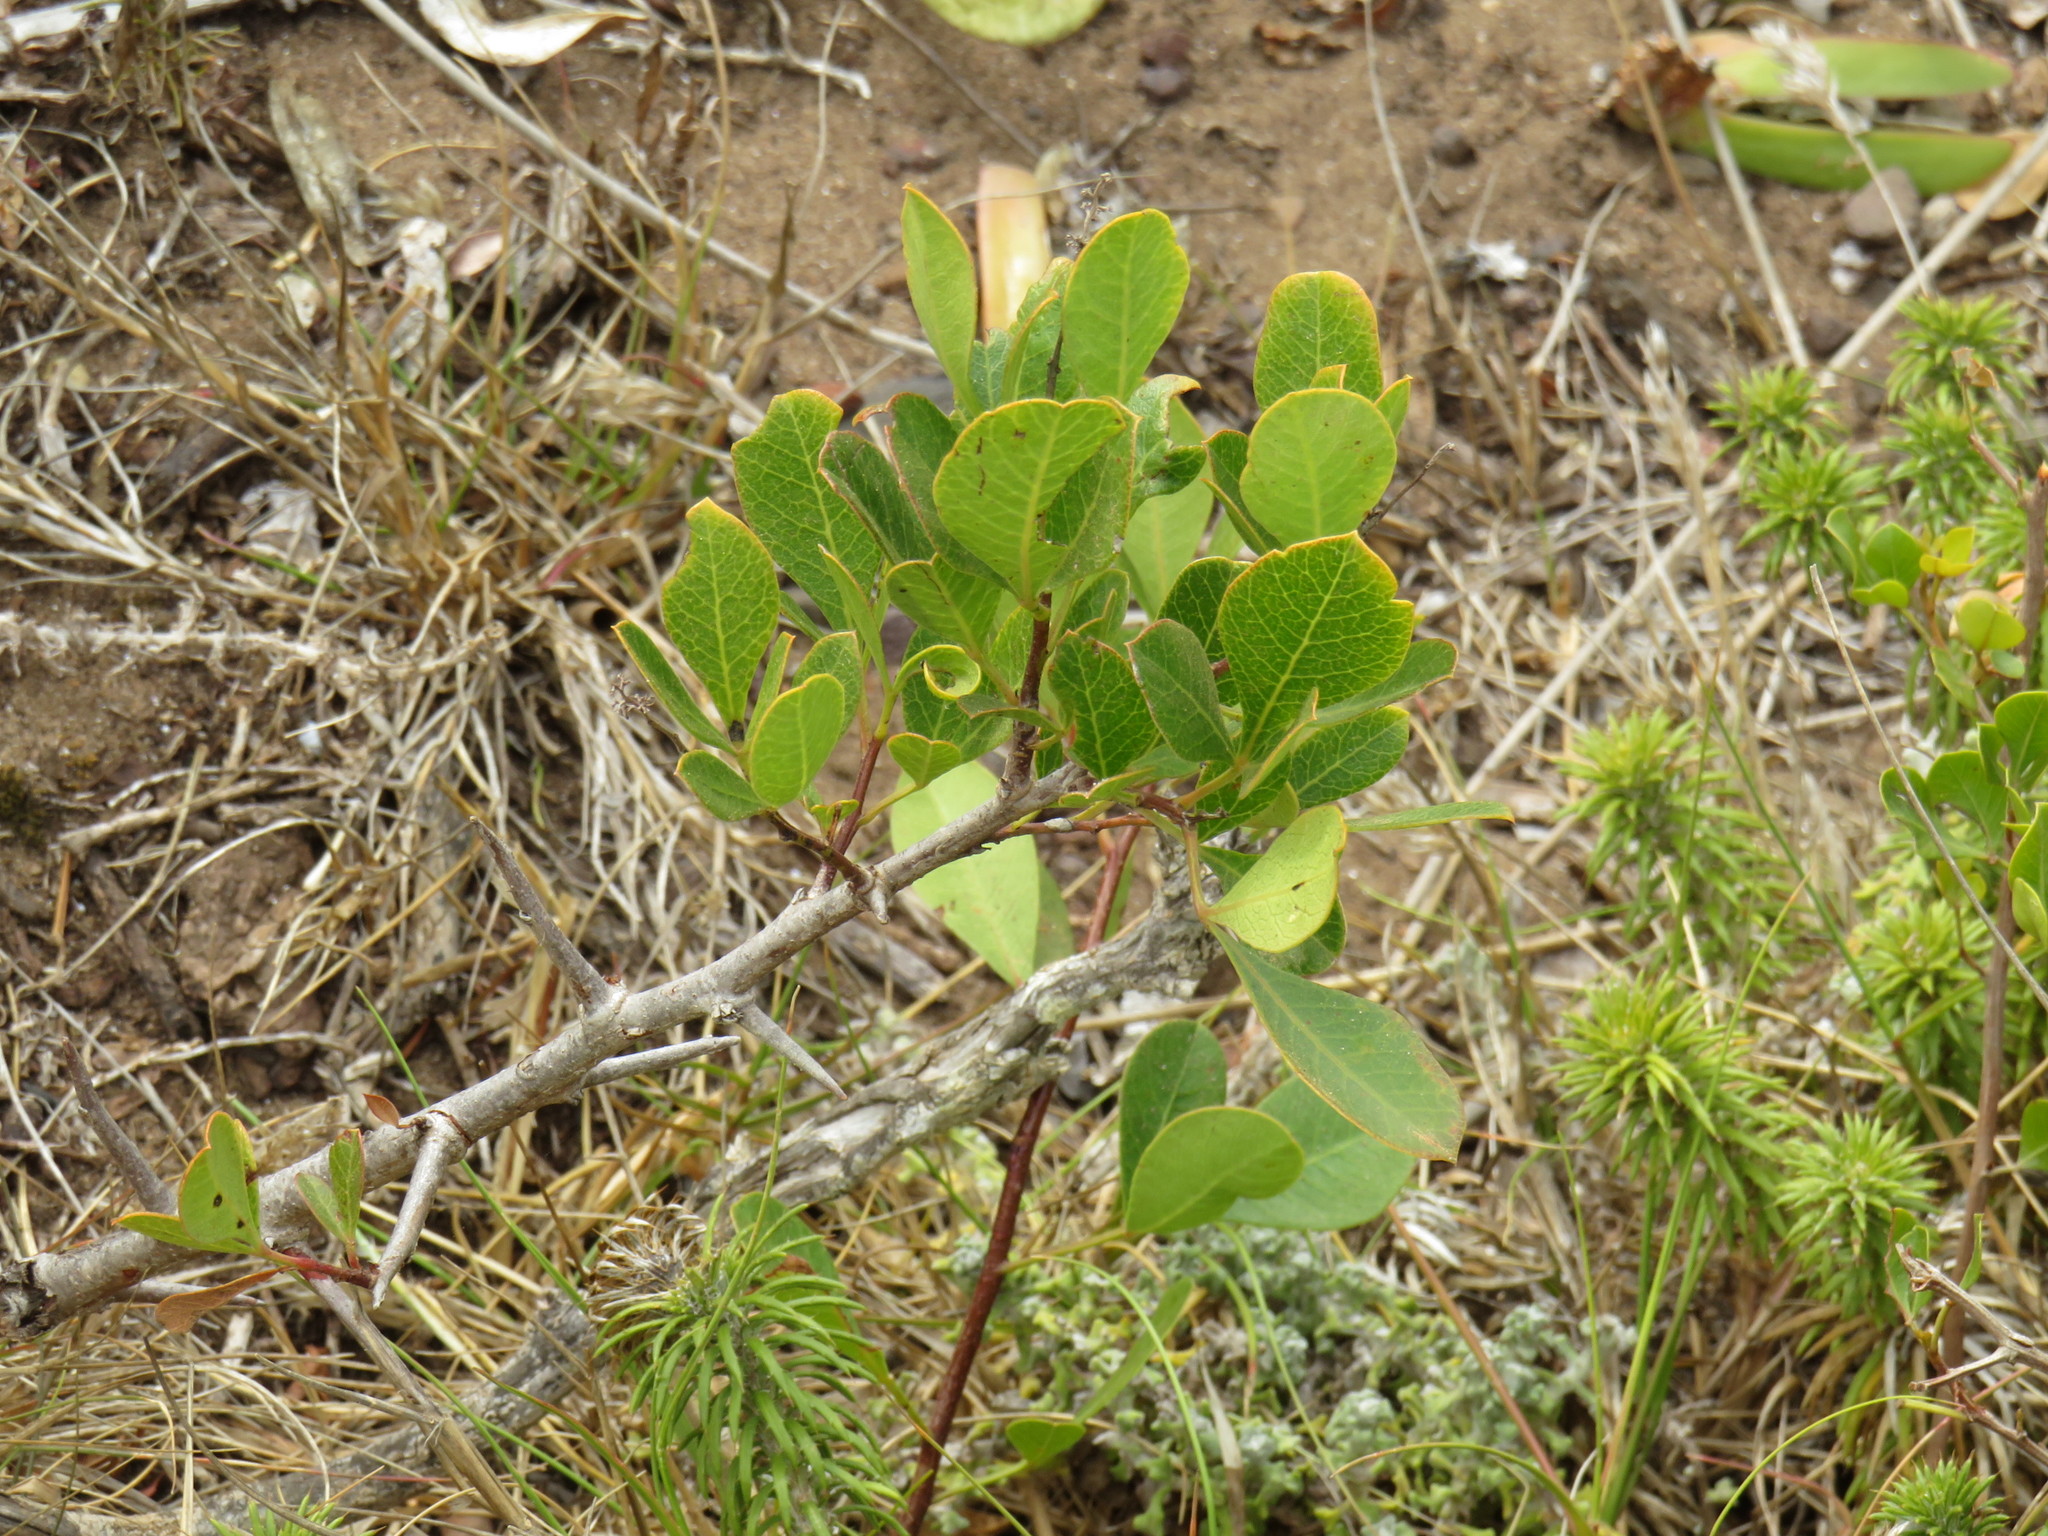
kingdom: Plantae
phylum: Tracheophyta
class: Magnoliopsida
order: Sapindales
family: Anacardiaceae
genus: Searsia
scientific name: Searsia laevigata
